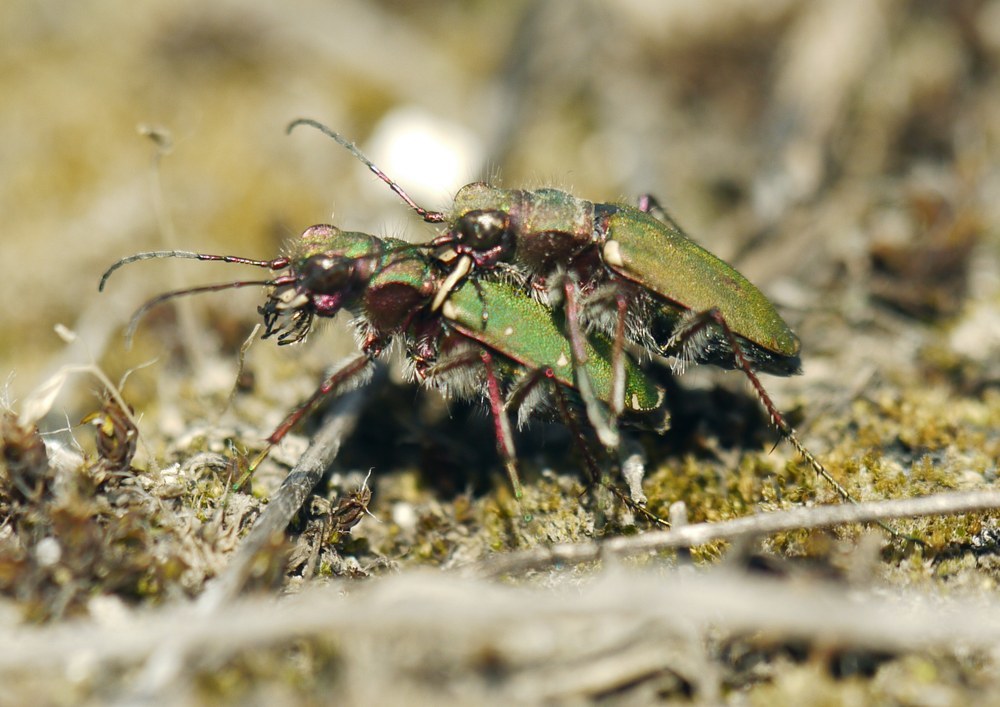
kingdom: Animalia
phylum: Arthropoda
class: Insecta
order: Coleoptera
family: Carabidae
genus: Cicindela
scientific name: Cicindela campestris
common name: Common tiger beetle
